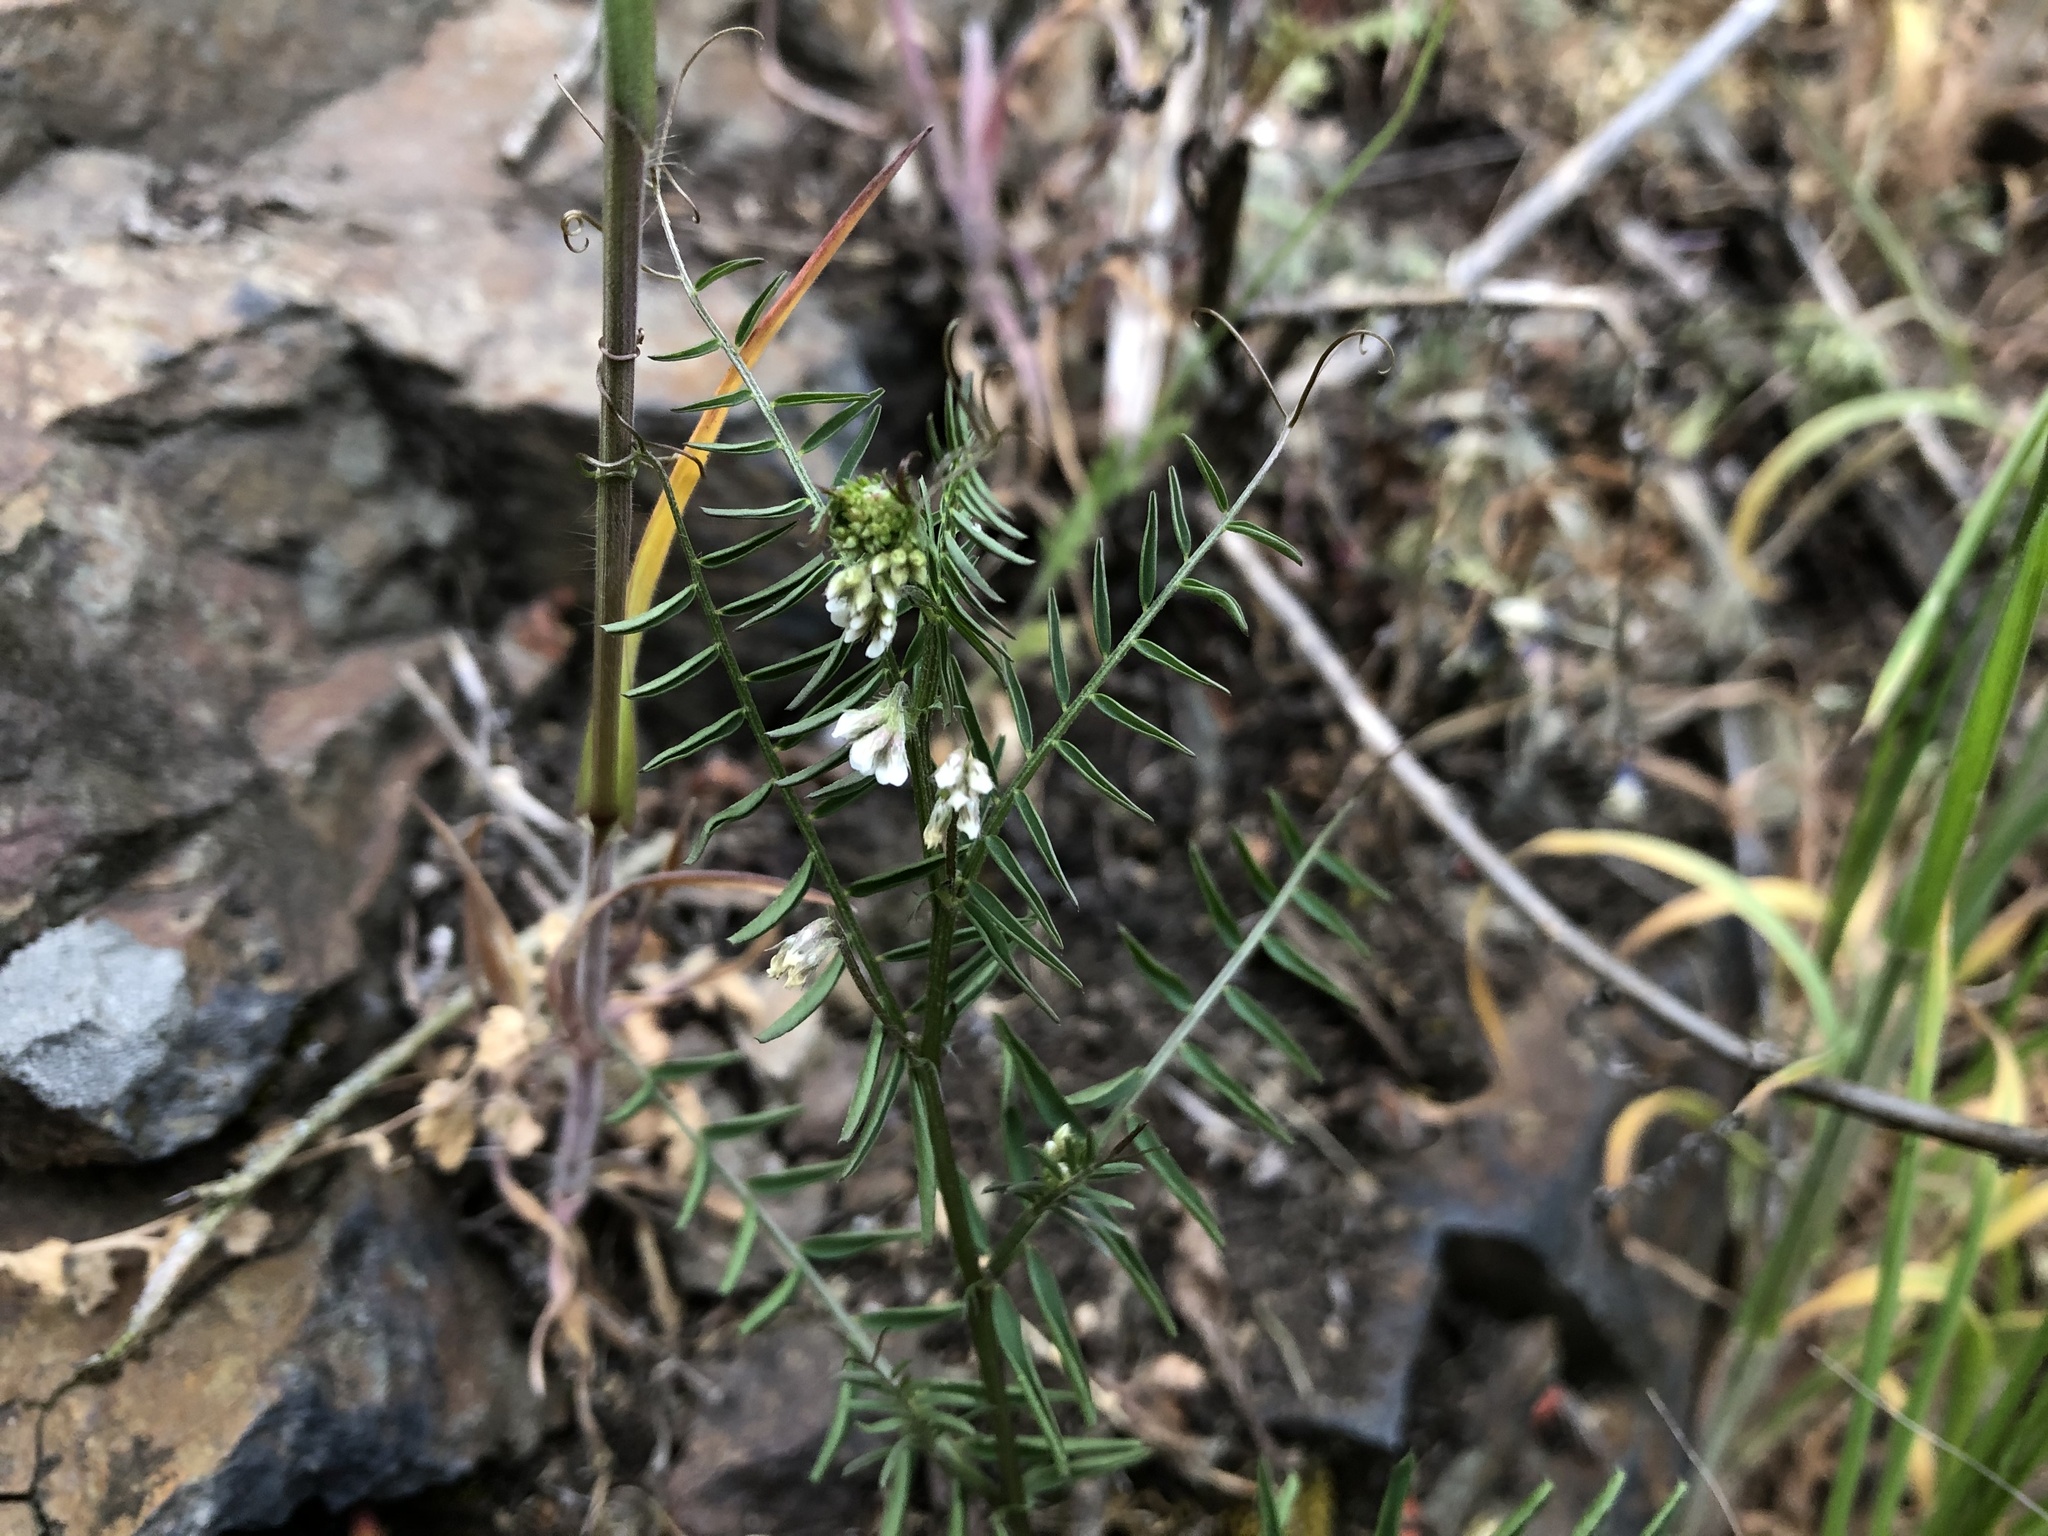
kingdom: Plantae
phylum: Tracheophyta
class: Magnoliopsida
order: Fabales
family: Fabaceae
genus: Vicia
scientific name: Vicia hirsuta
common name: Tiny vetch
